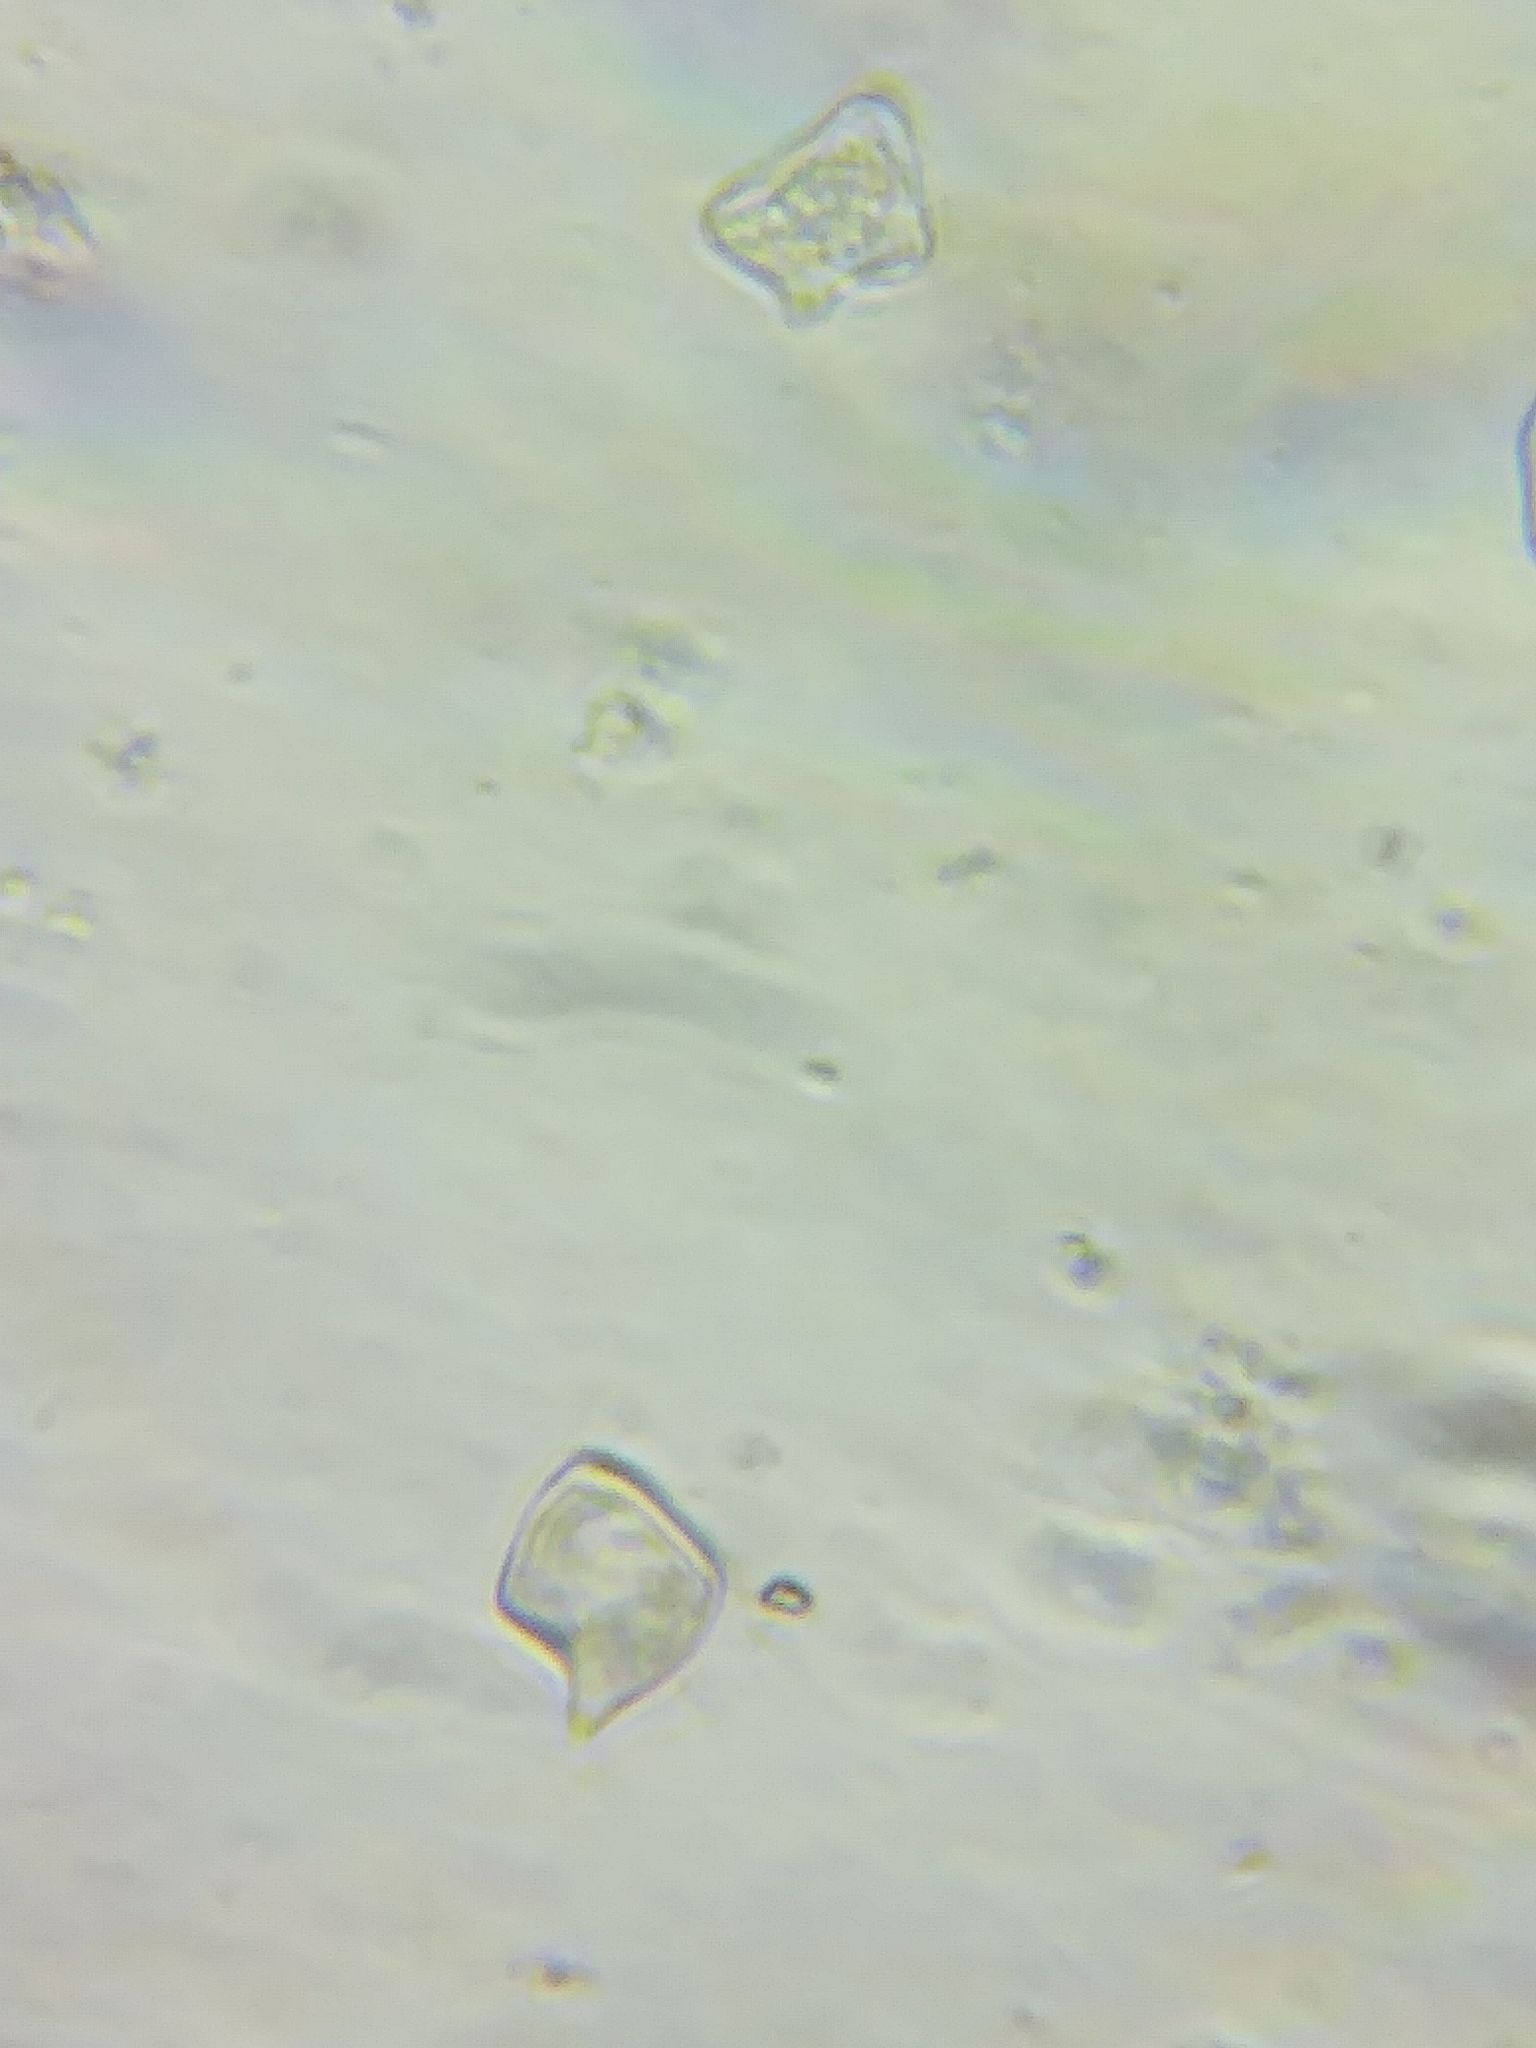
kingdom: Fungi
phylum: Basidiomycota
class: Agaricomycetes
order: Agaricales
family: Entolomataceae
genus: Entoloma
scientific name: Entoloma alboumbonatum
